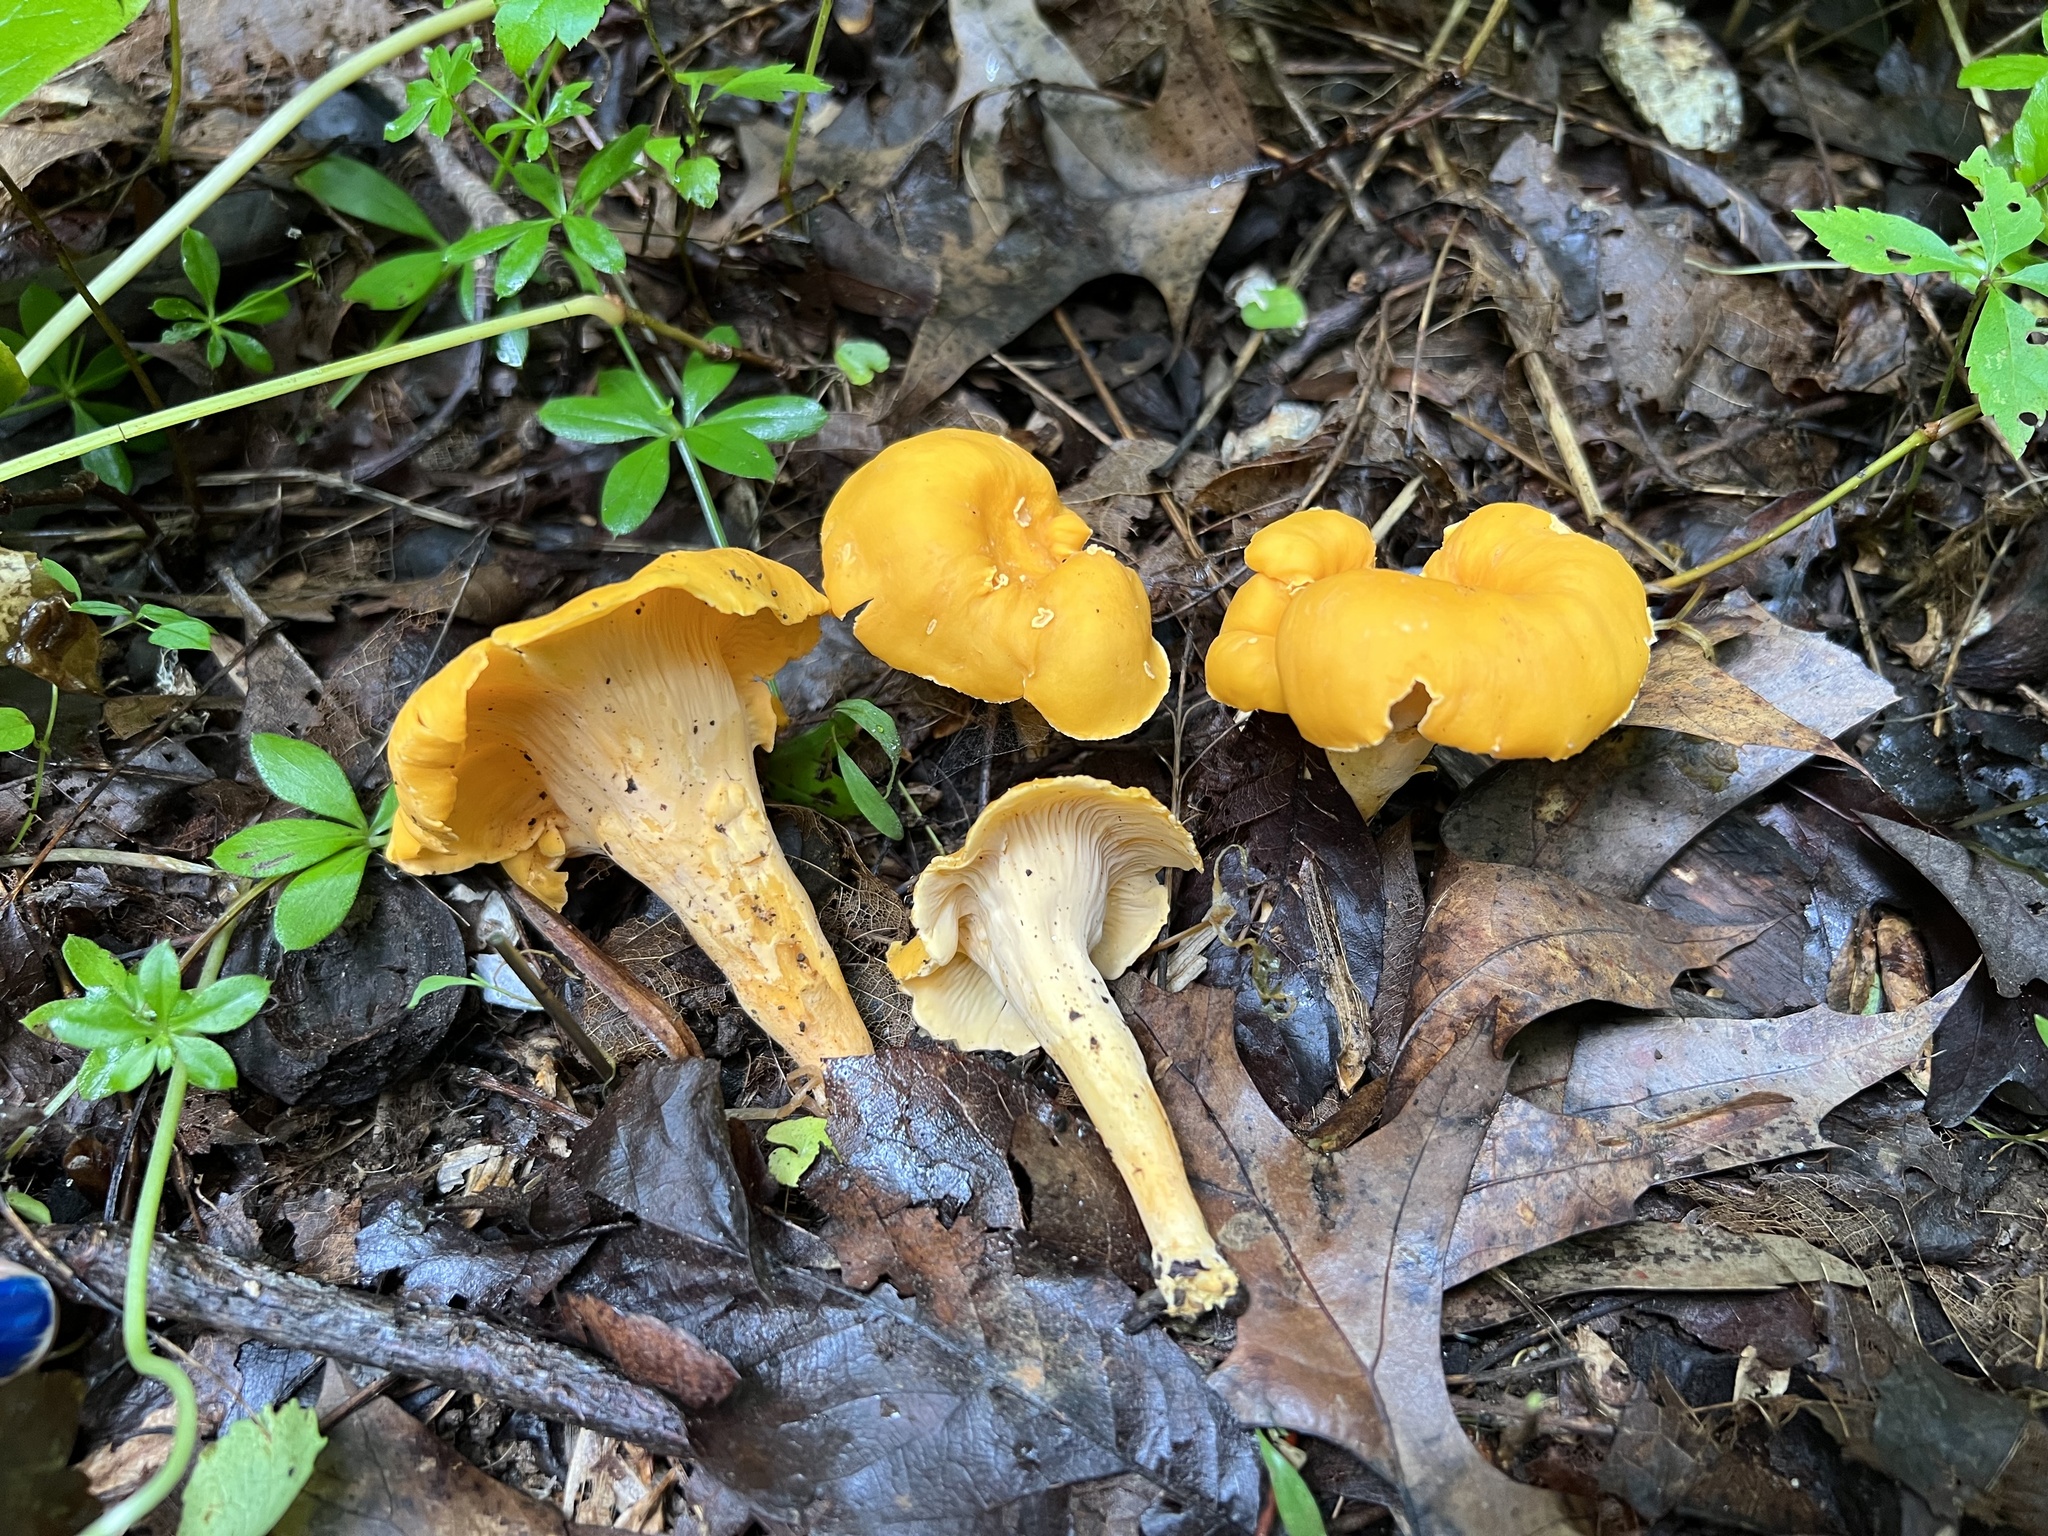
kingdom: Fungi
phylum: Basidiomycota
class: Agaricomycetes
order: Cantharellales
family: Hydnaceae
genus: Cantharellus
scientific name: Cantharellus lateritius
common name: Smooth chanterelle
